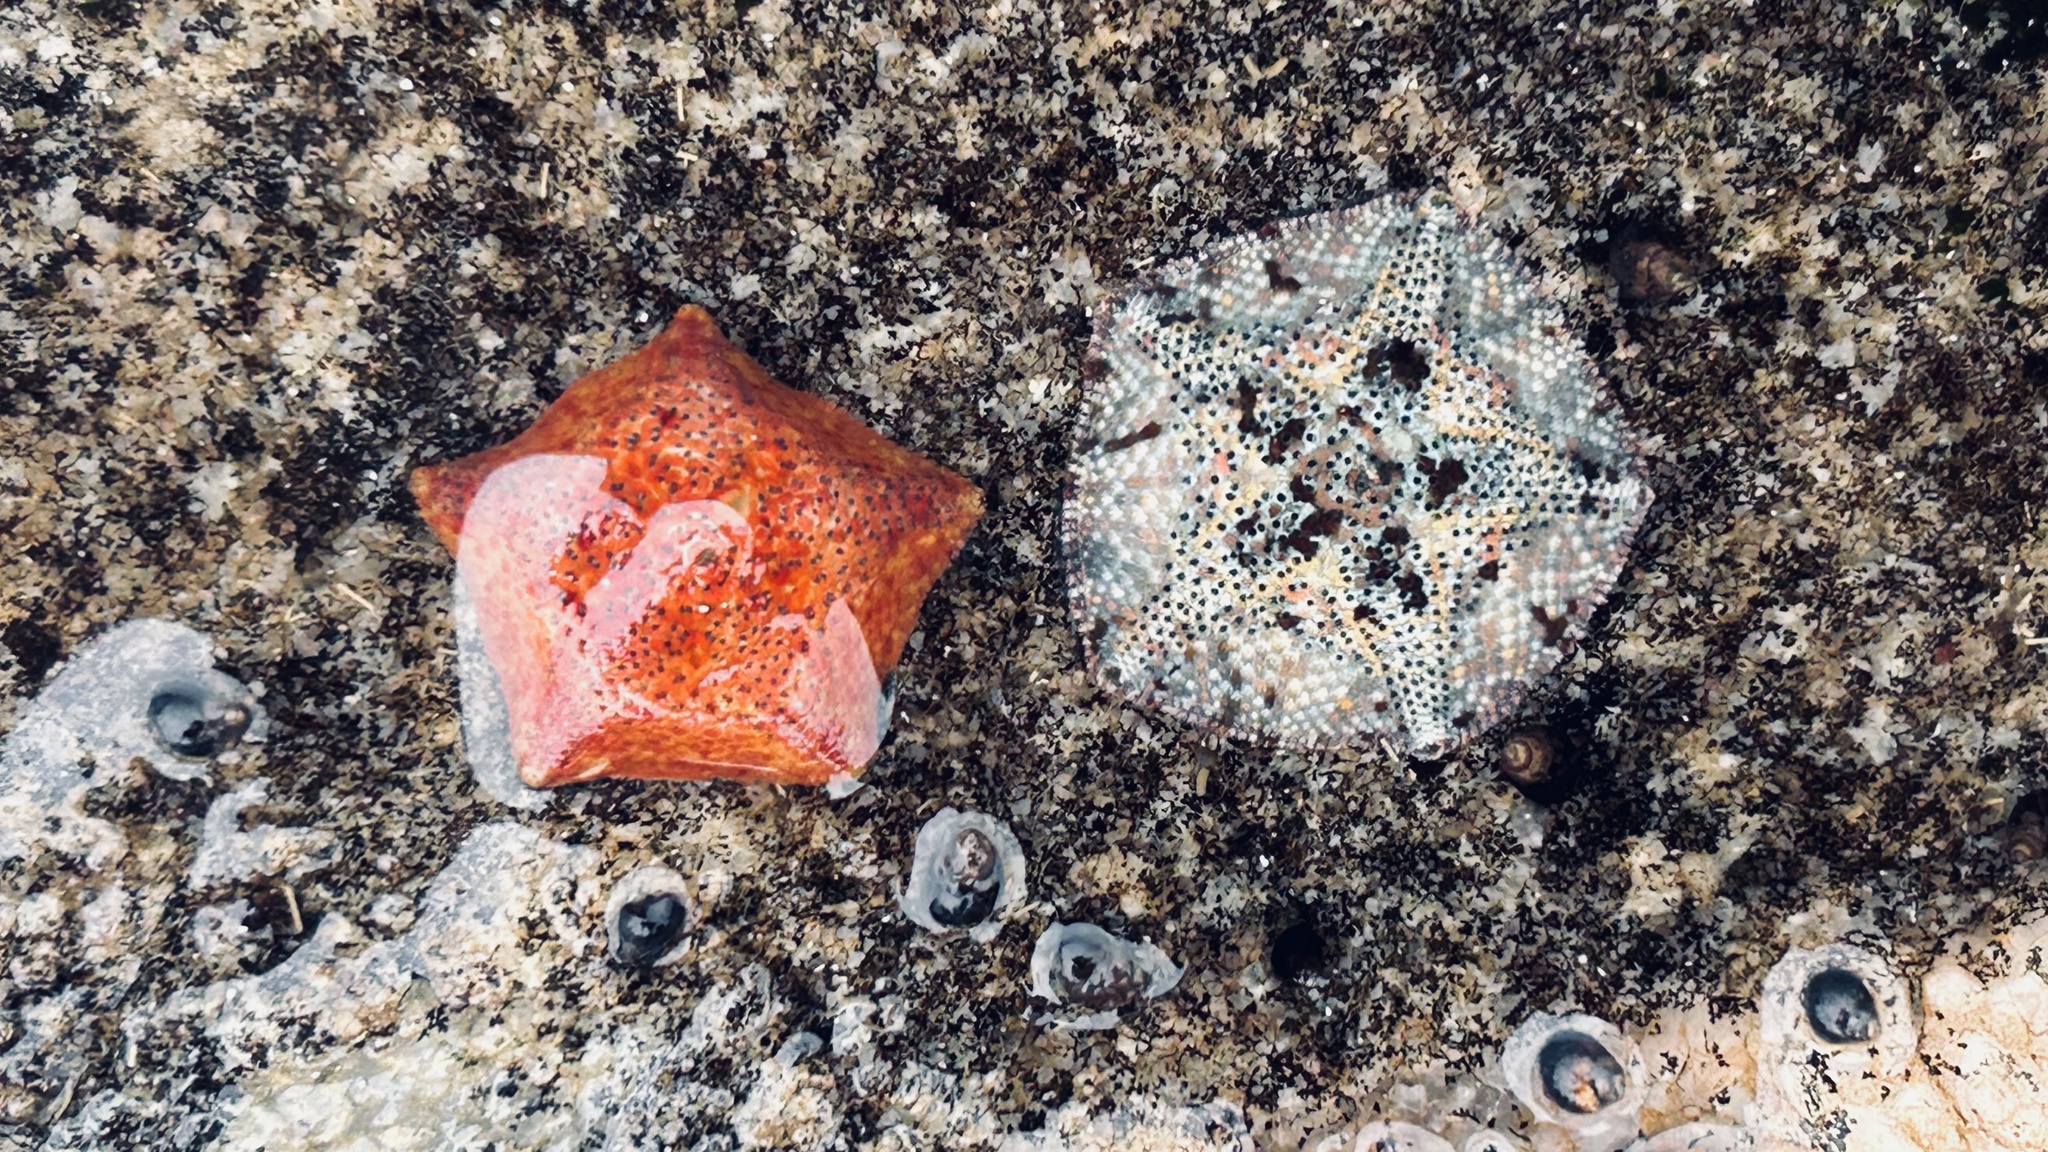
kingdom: Animalia
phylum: Echinodermata
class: Asteroidea
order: Valvatida
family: Asterinidae
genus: Parvulastra
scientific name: Parvulastra exigua
